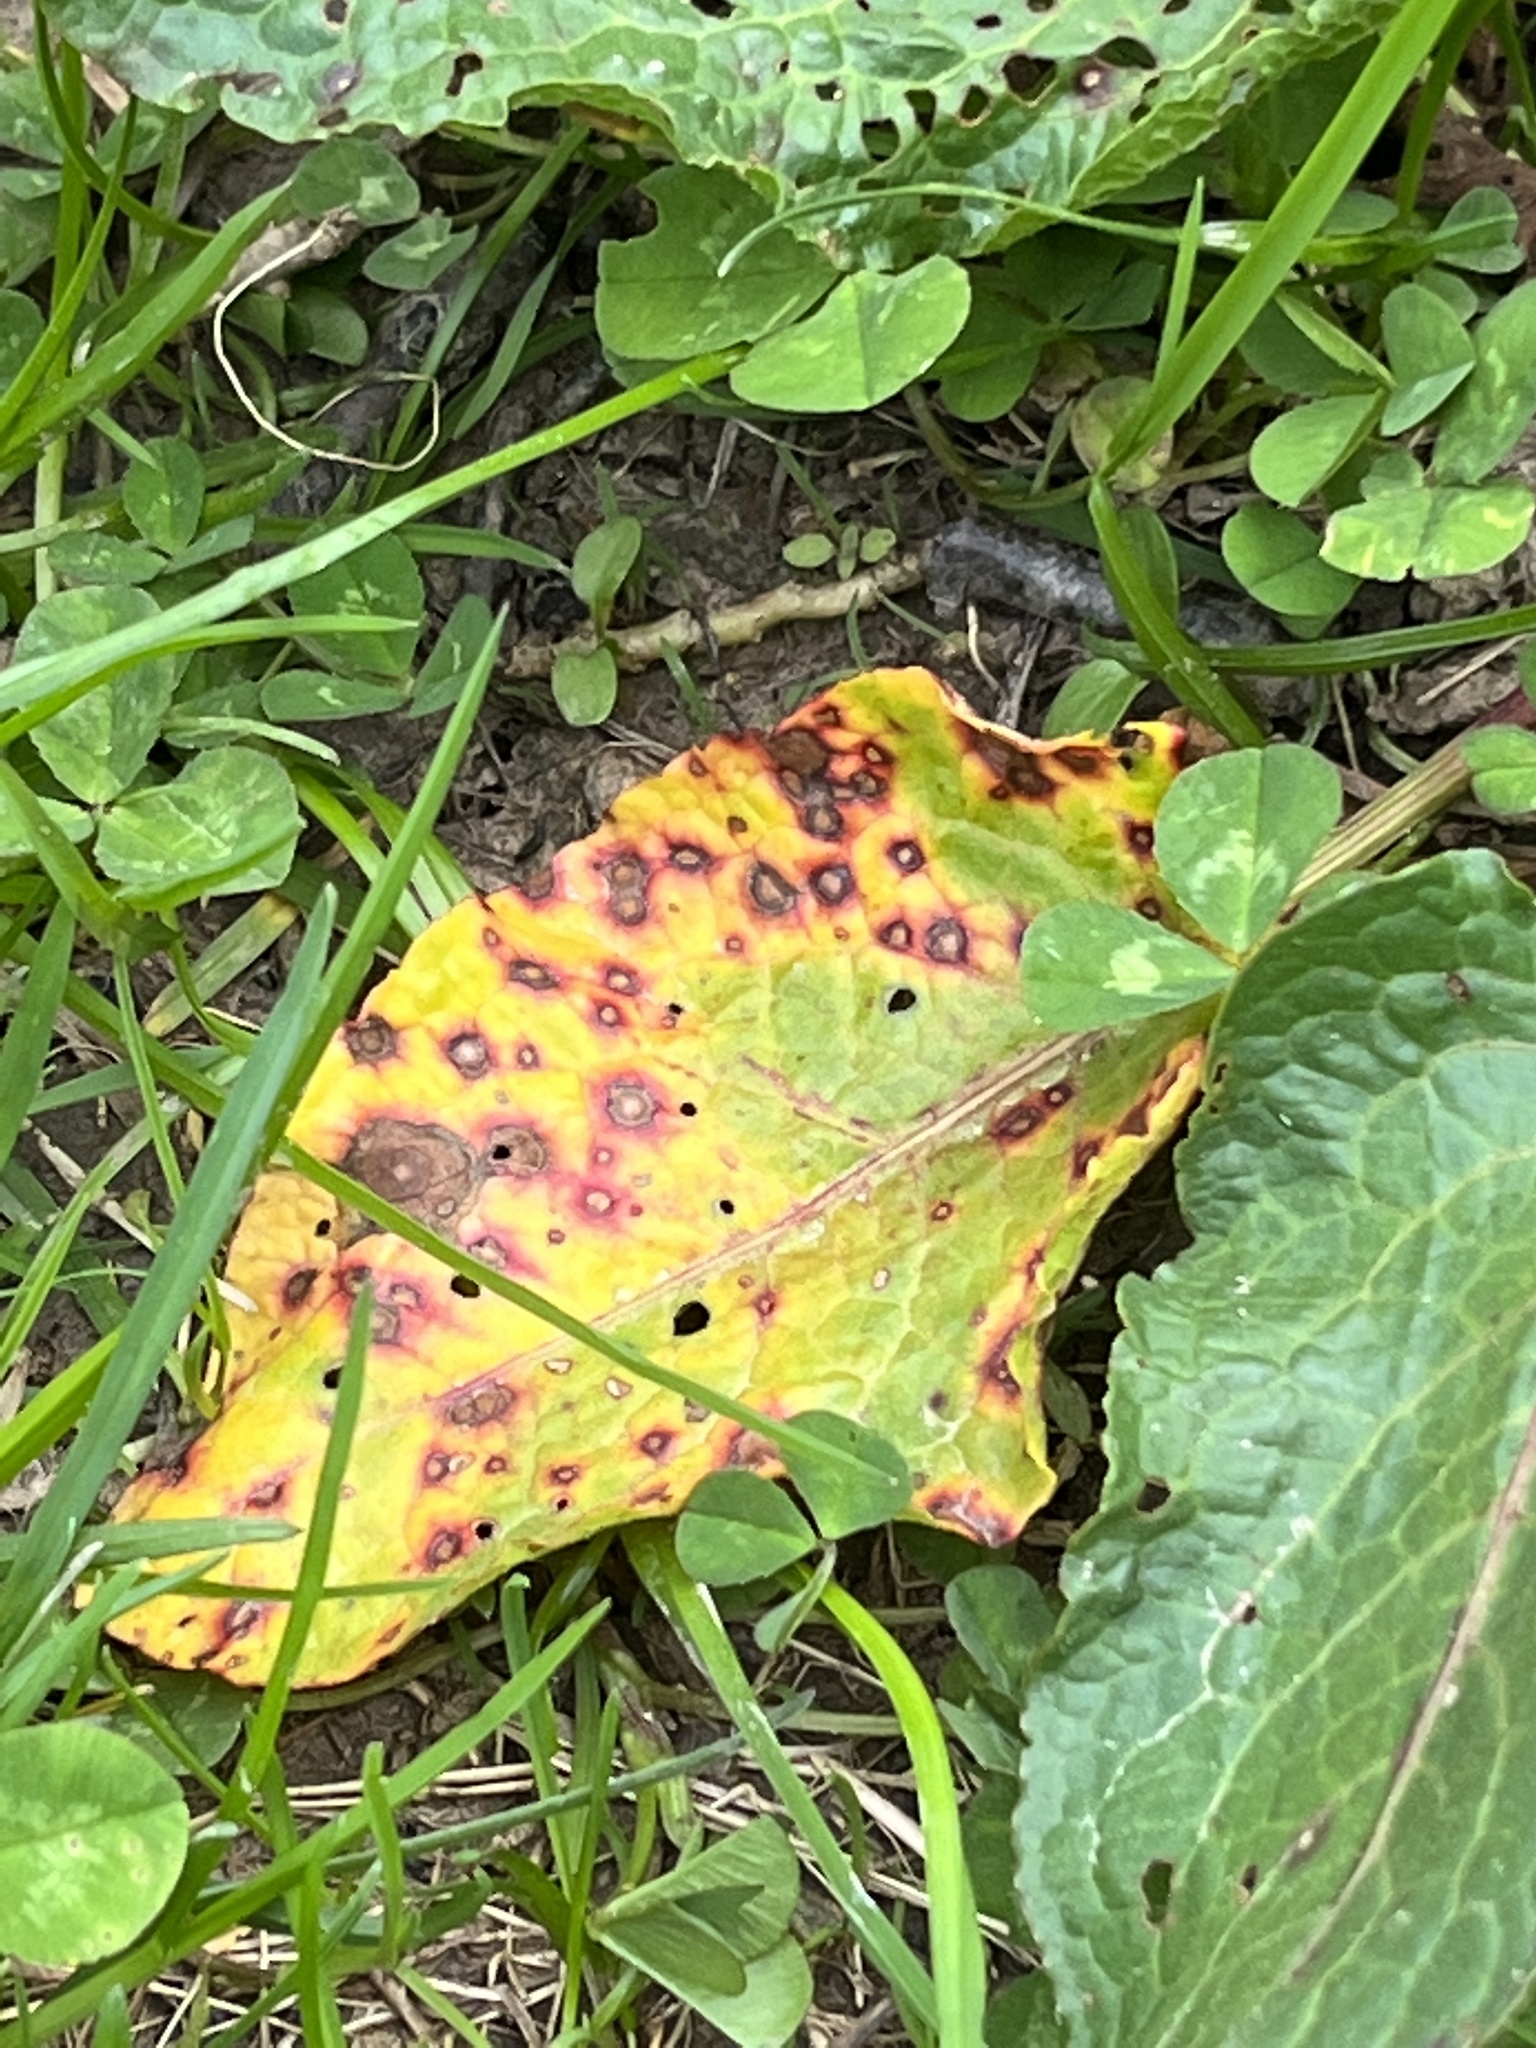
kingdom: Fungi
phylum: Ascomycota
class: Dothideomycetes
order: Mycosphaerellales
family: Mycosphaerellaceae
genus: Ramularia
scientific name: Ramularia rubella
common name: Red dock spot
